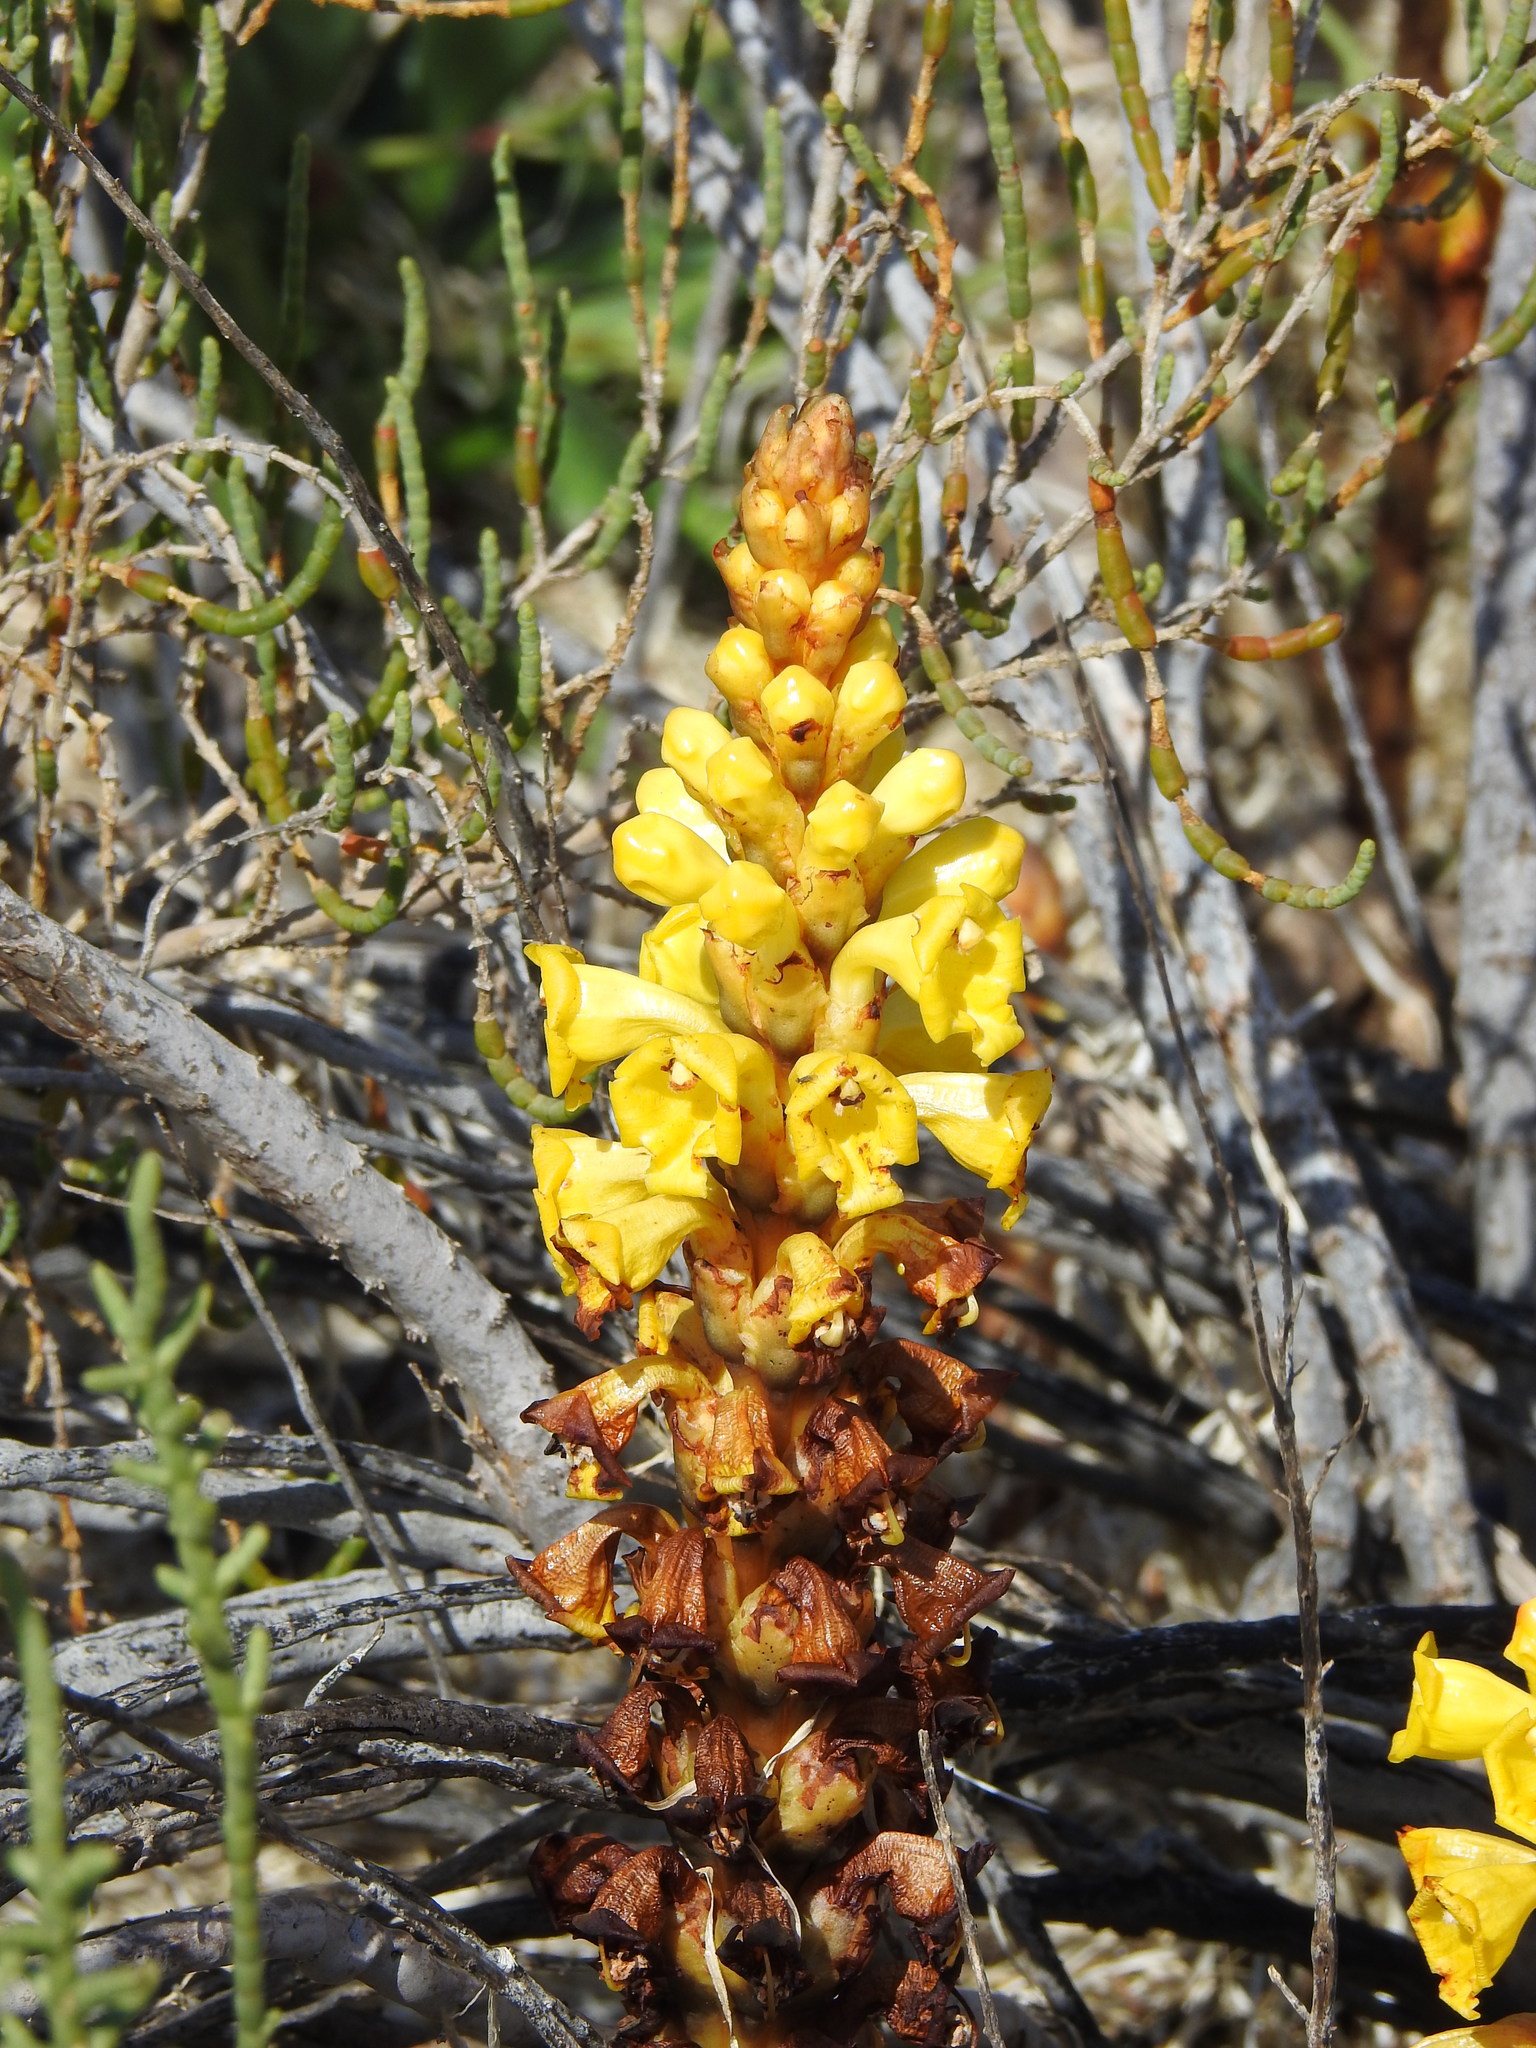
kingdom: Plantae
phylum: Tracheophyta
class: Magnoliopsida
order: Lamiales
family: Orobanchaceae
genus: Cistanche
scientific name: Cistanche phelypaea
